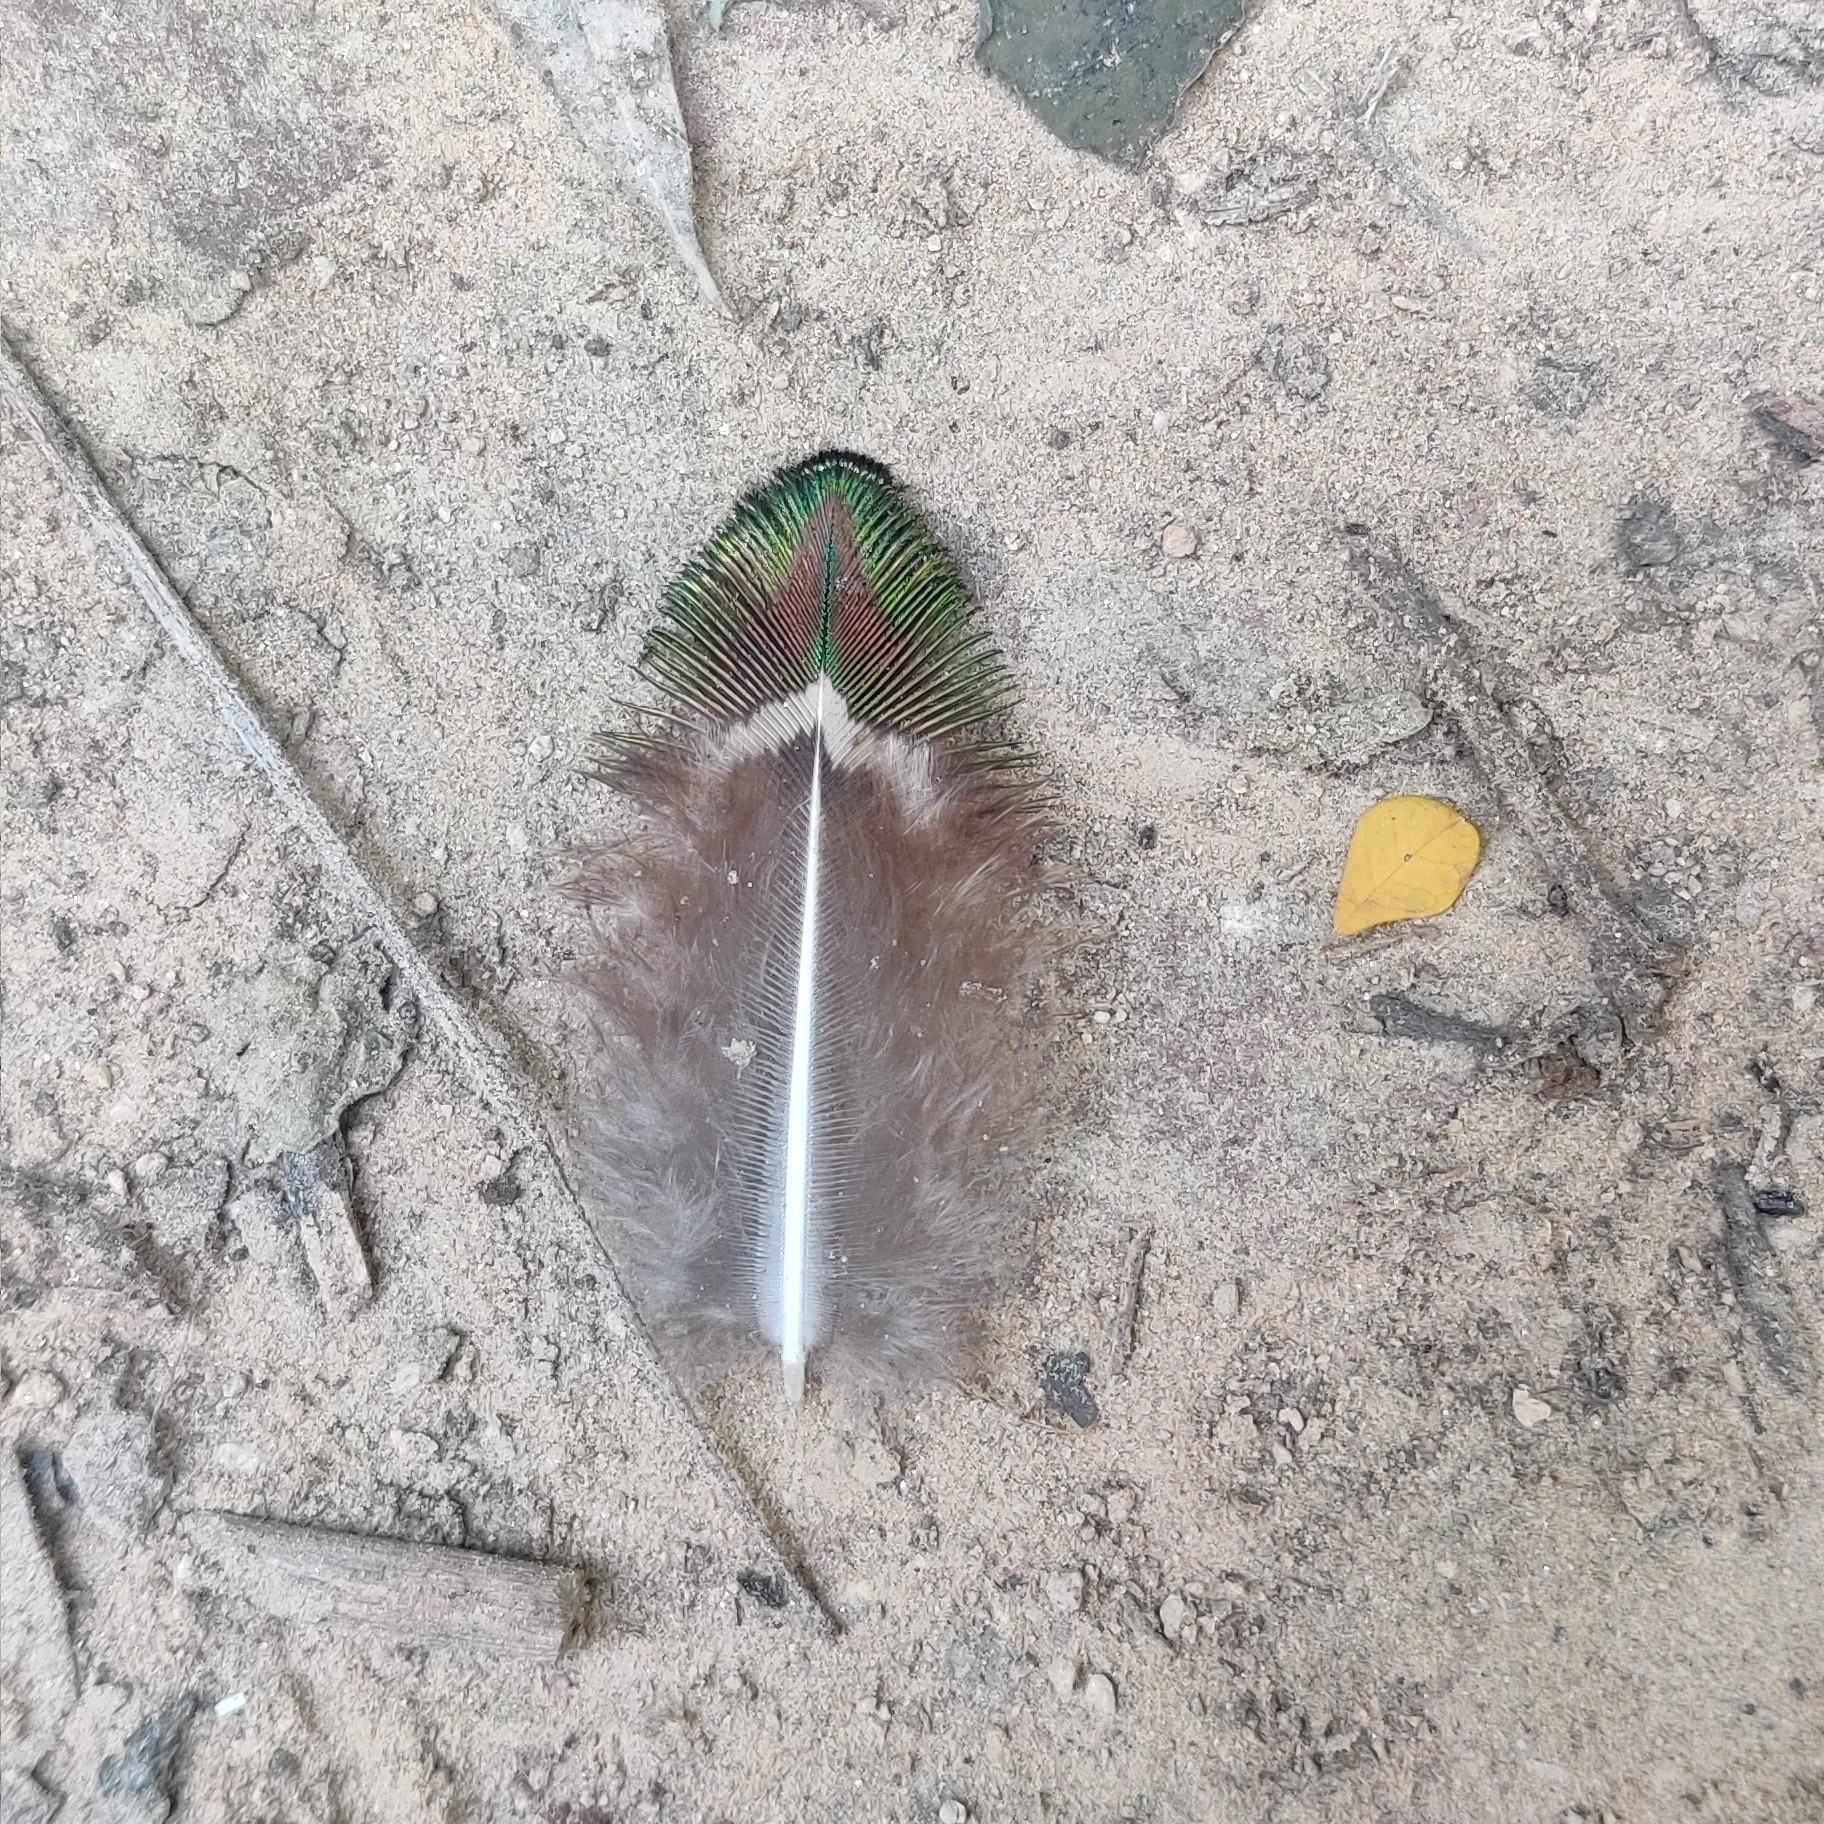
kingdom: Animalia
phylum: Chordata
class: Aves
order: Galliformes
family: Phasianidae
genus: Pavo
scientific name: Pavo cristatus
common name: Indian peafowl
